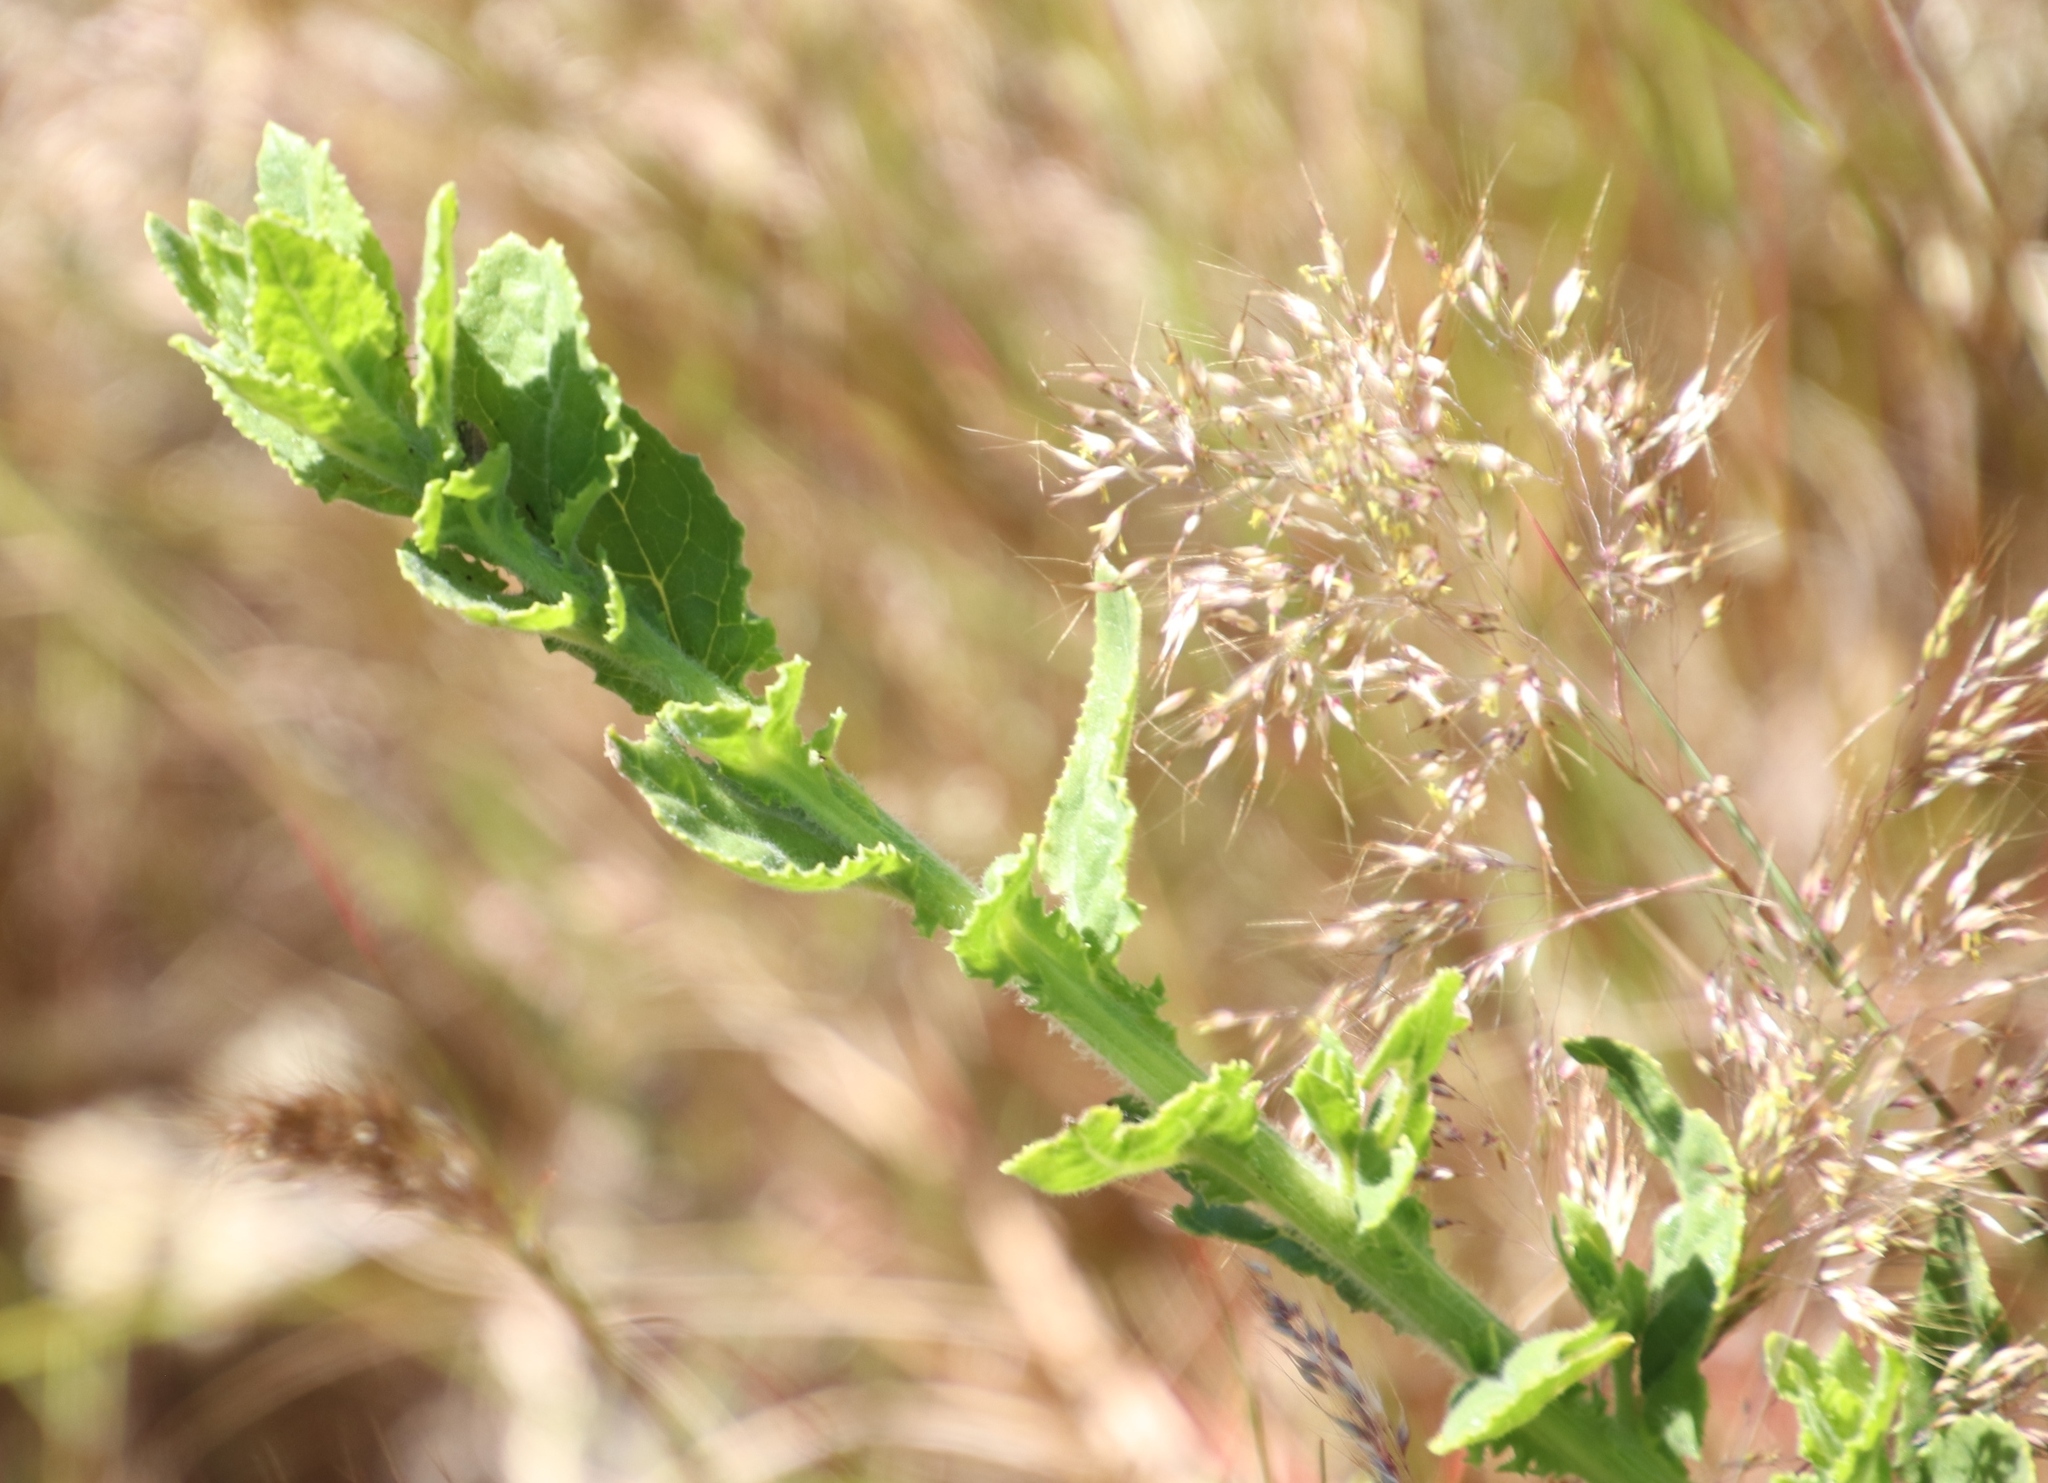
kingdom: Plantae
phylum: Tracheophyta
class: Magnoliopsida
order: Lamiales
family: Scrophulariaceae
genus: Oftia
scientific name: Oftia africana
